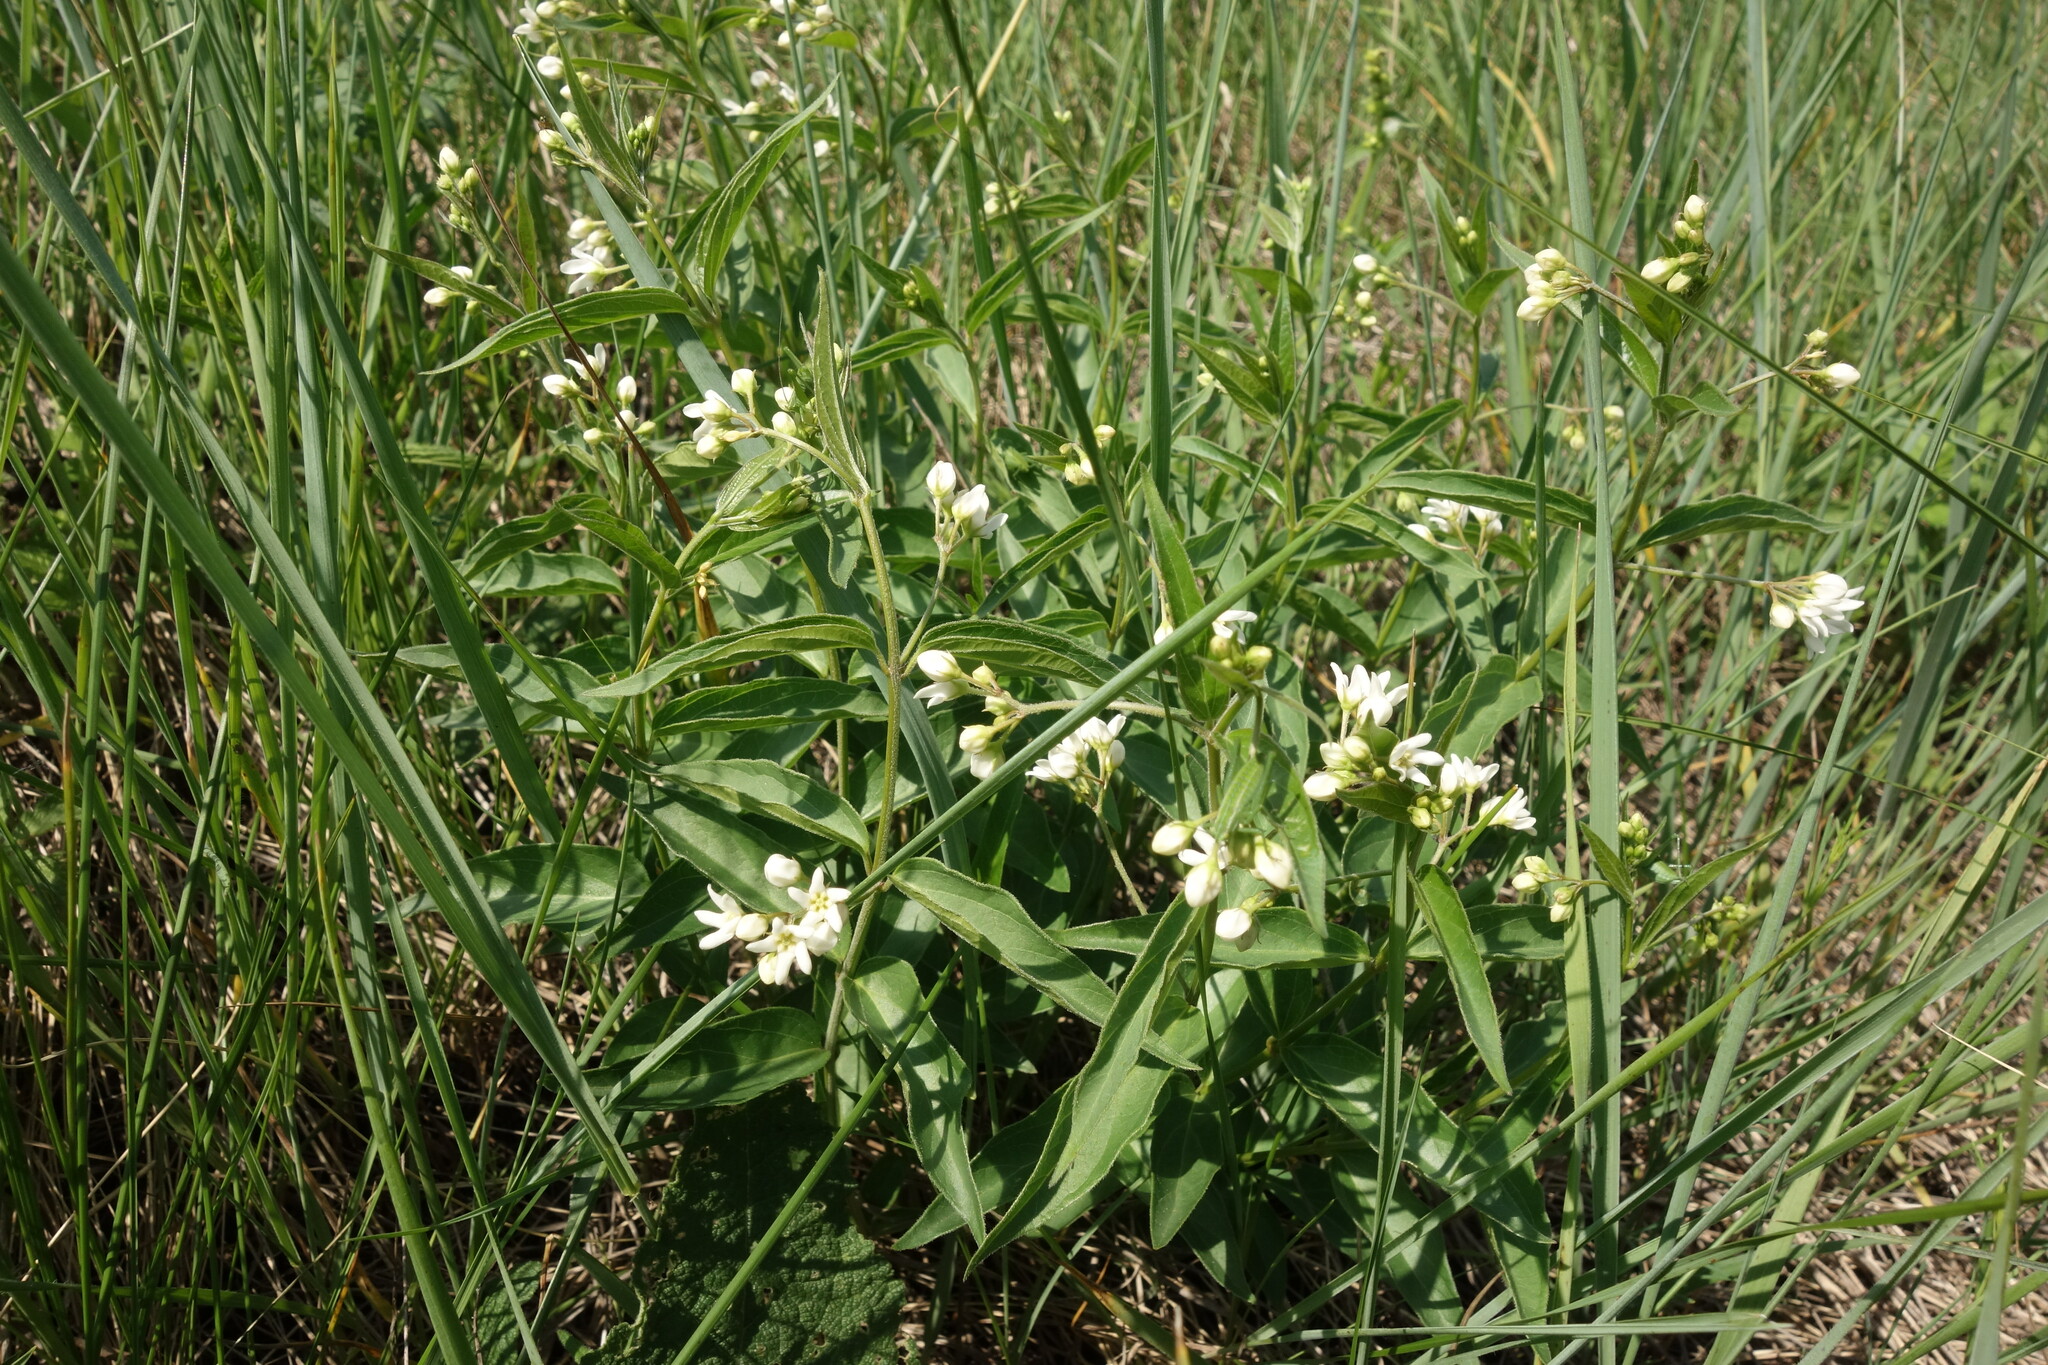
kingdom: Plantae
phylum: Tracheophyta
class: Magnoliopsida
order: Gentianales
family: Apocynaceae
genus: Vincetoxicum
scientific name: Vincetoxicum hirundinaria
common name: White swallowwort
